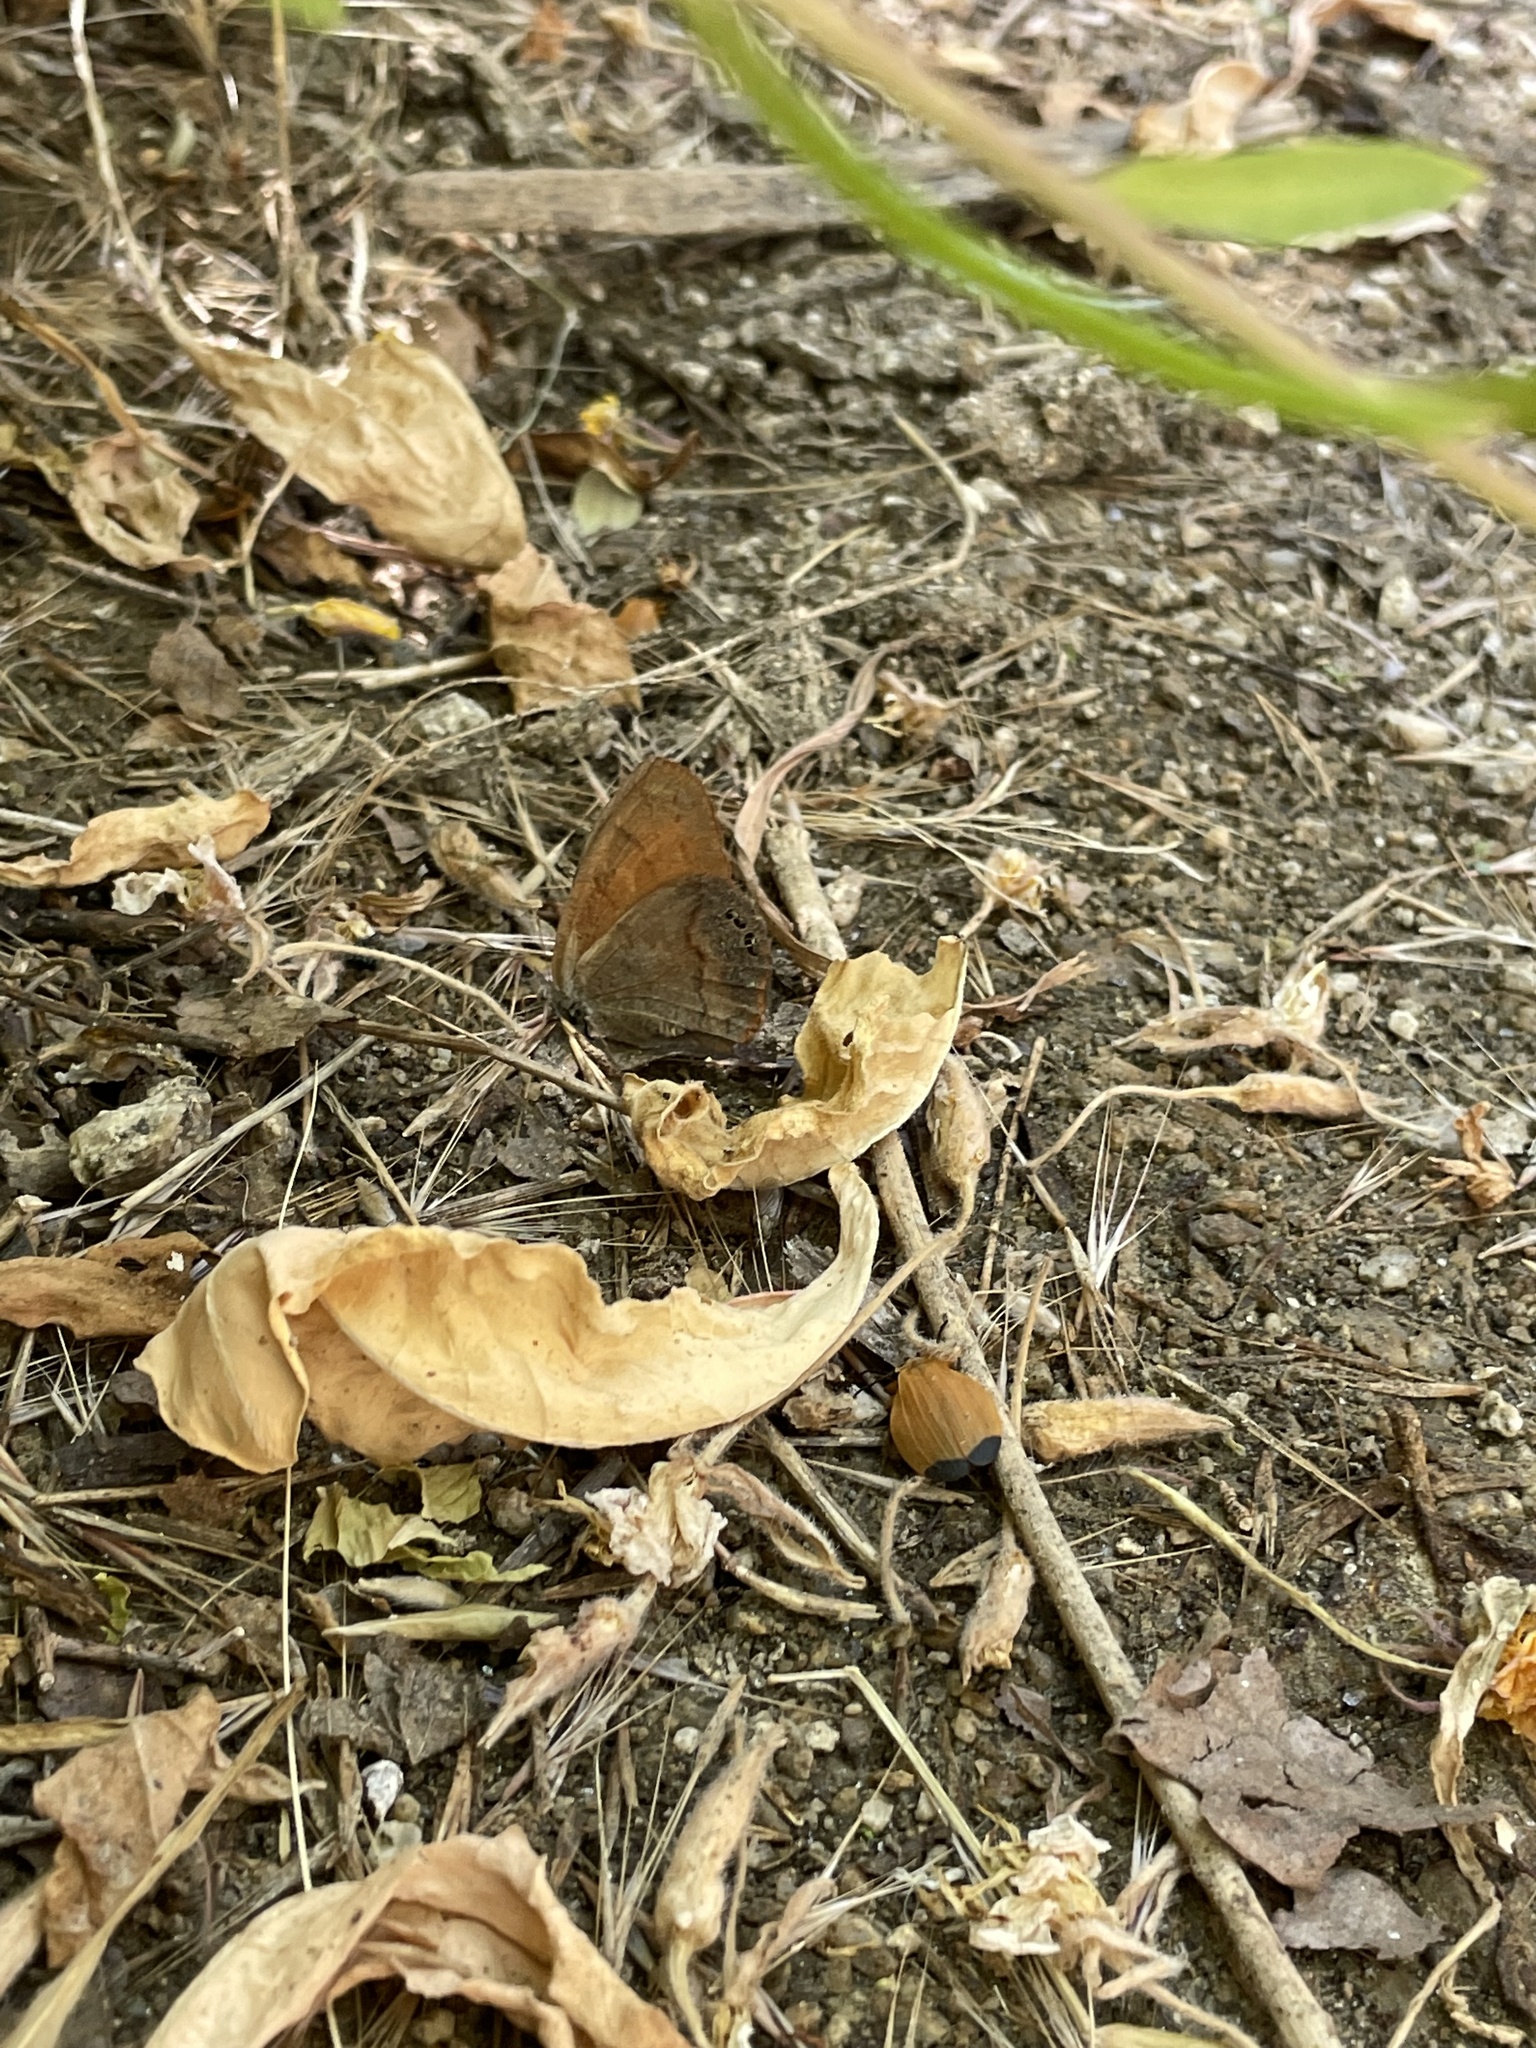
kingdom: Animalia
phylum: Arthropoda
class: Insecta
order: Lepidoptera
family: Nymphalidae
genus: Euptychia
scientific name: Euptychia Cyllopsis pertepida
